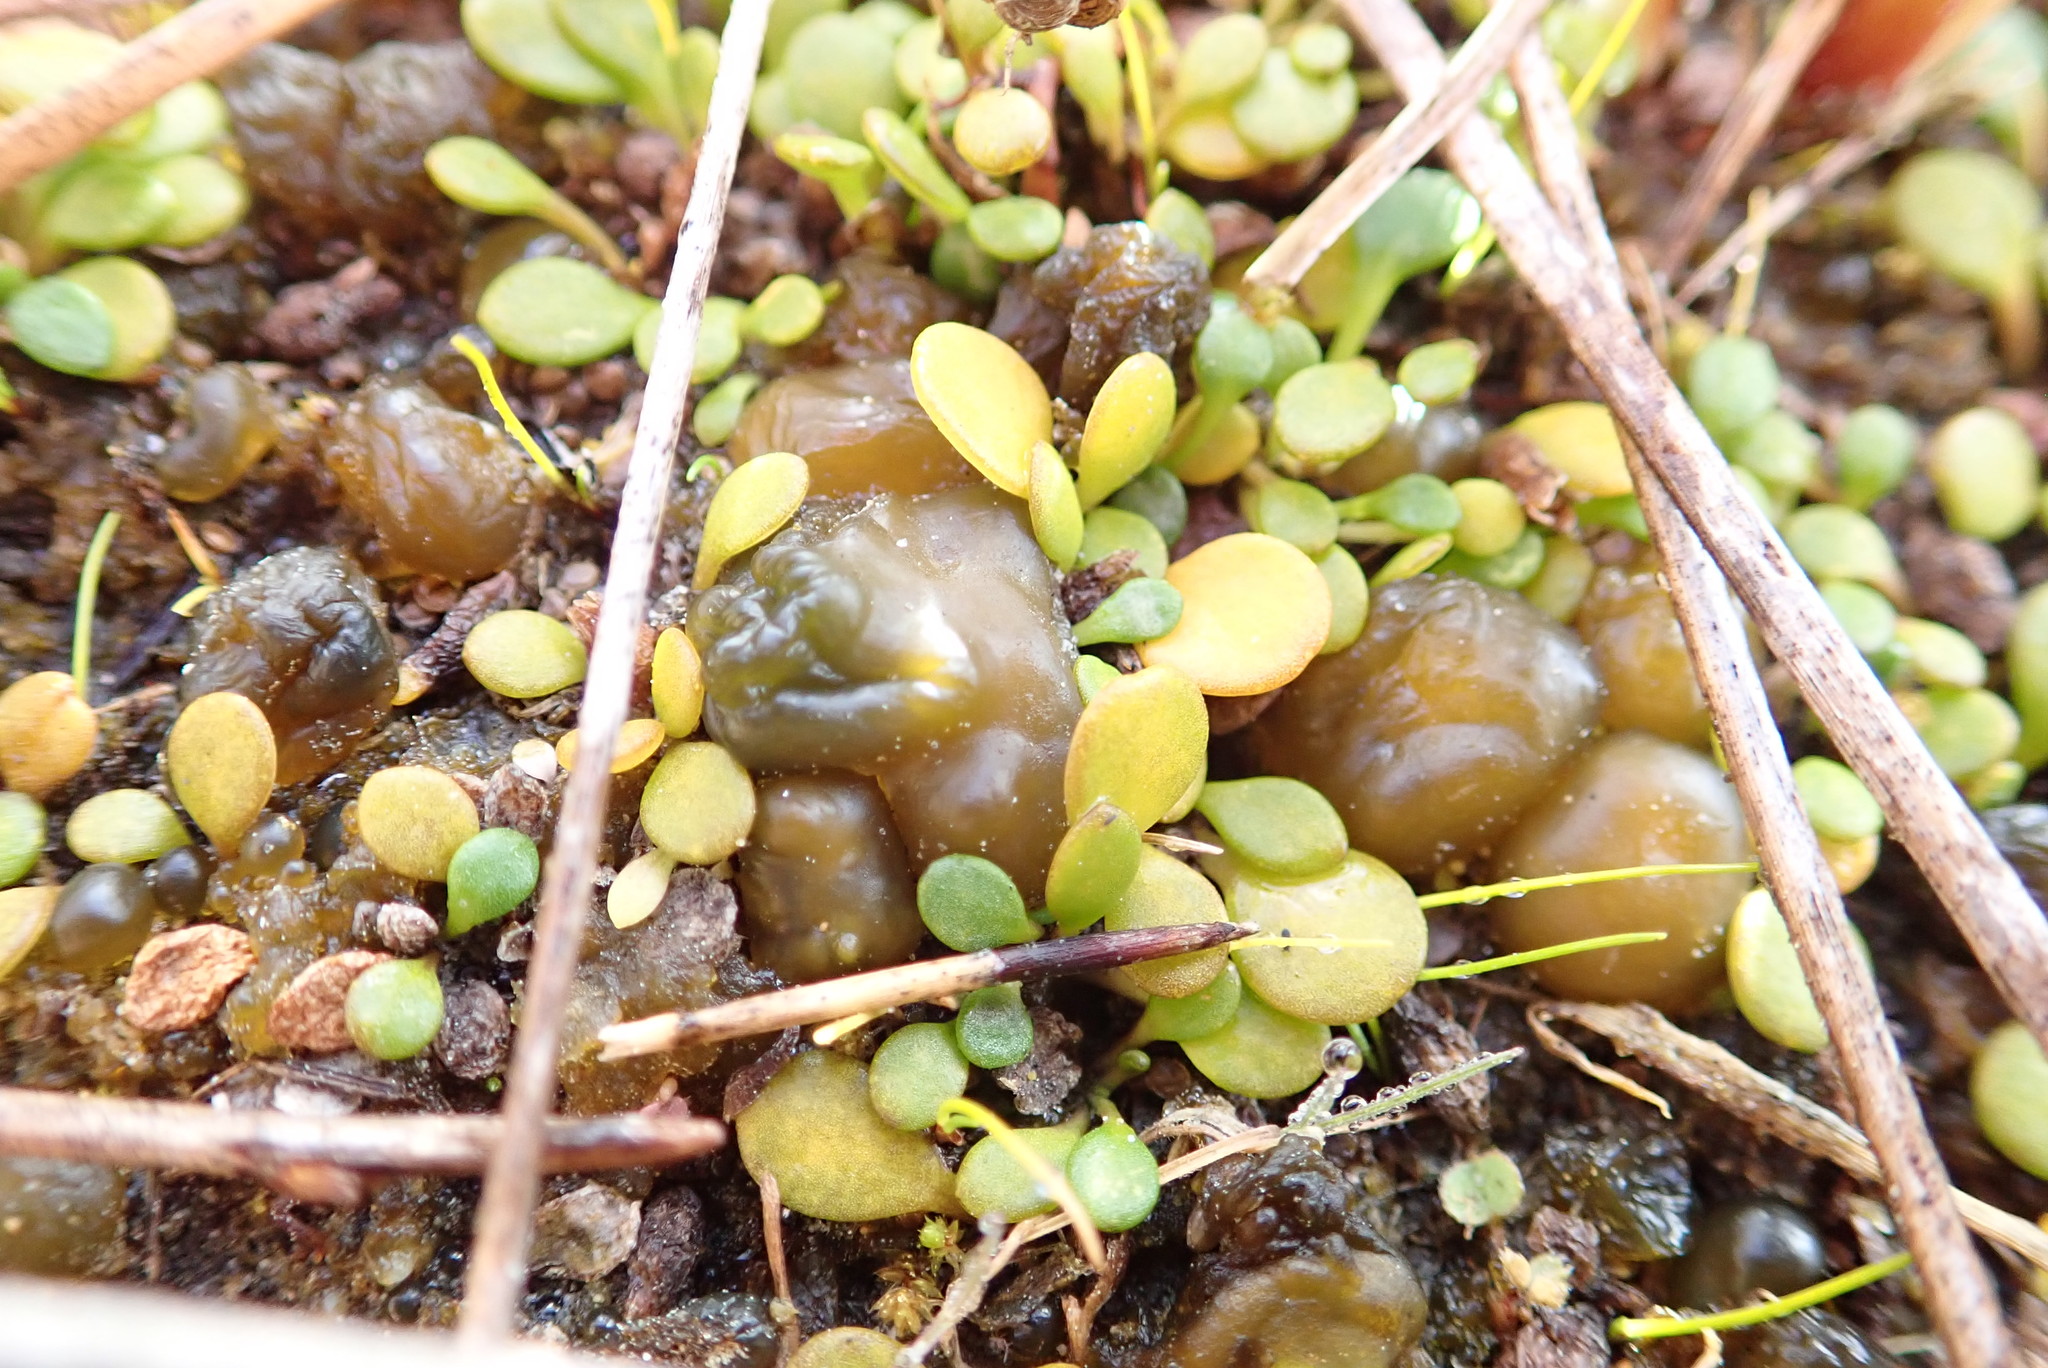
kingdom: Bacteria
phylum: Cyanobacteria
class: Cyanobacteriia
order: Cyanobacteriales
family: Nostocaceae
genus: Nostoc
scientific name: Nostoc commune
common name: Star jelly
